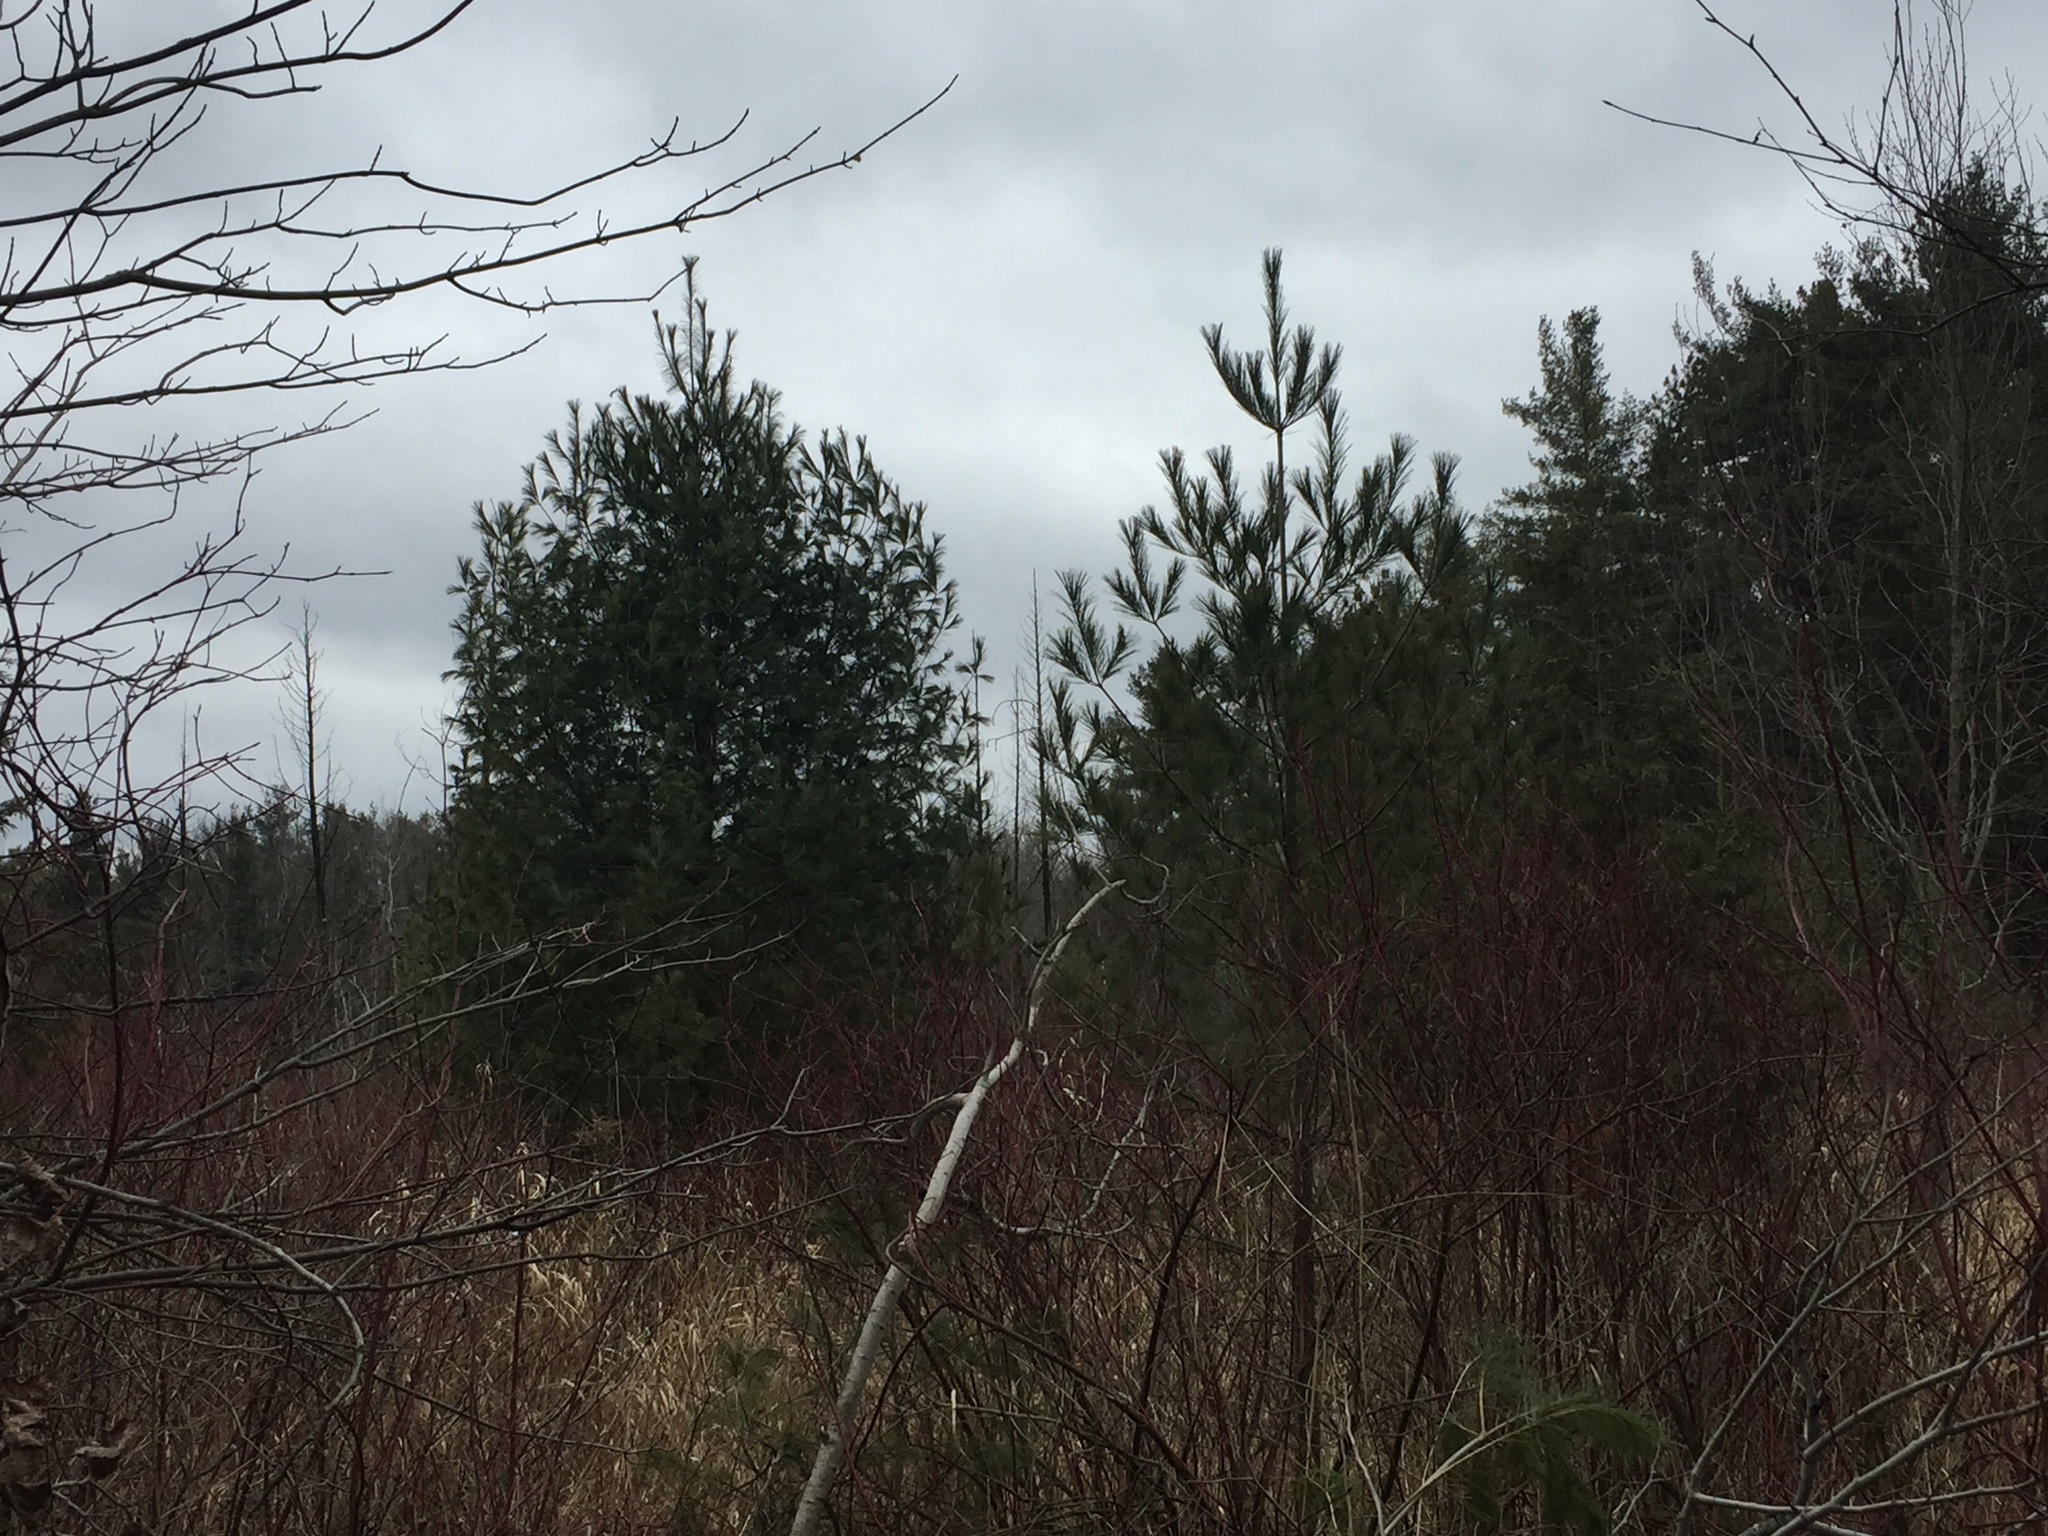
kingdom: Plantae
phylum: Tracheophyta
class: Pinopsida
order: Pinales
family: Pinaceae
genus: Pinus
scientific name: Pinus strobus
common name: Weymouth pine
